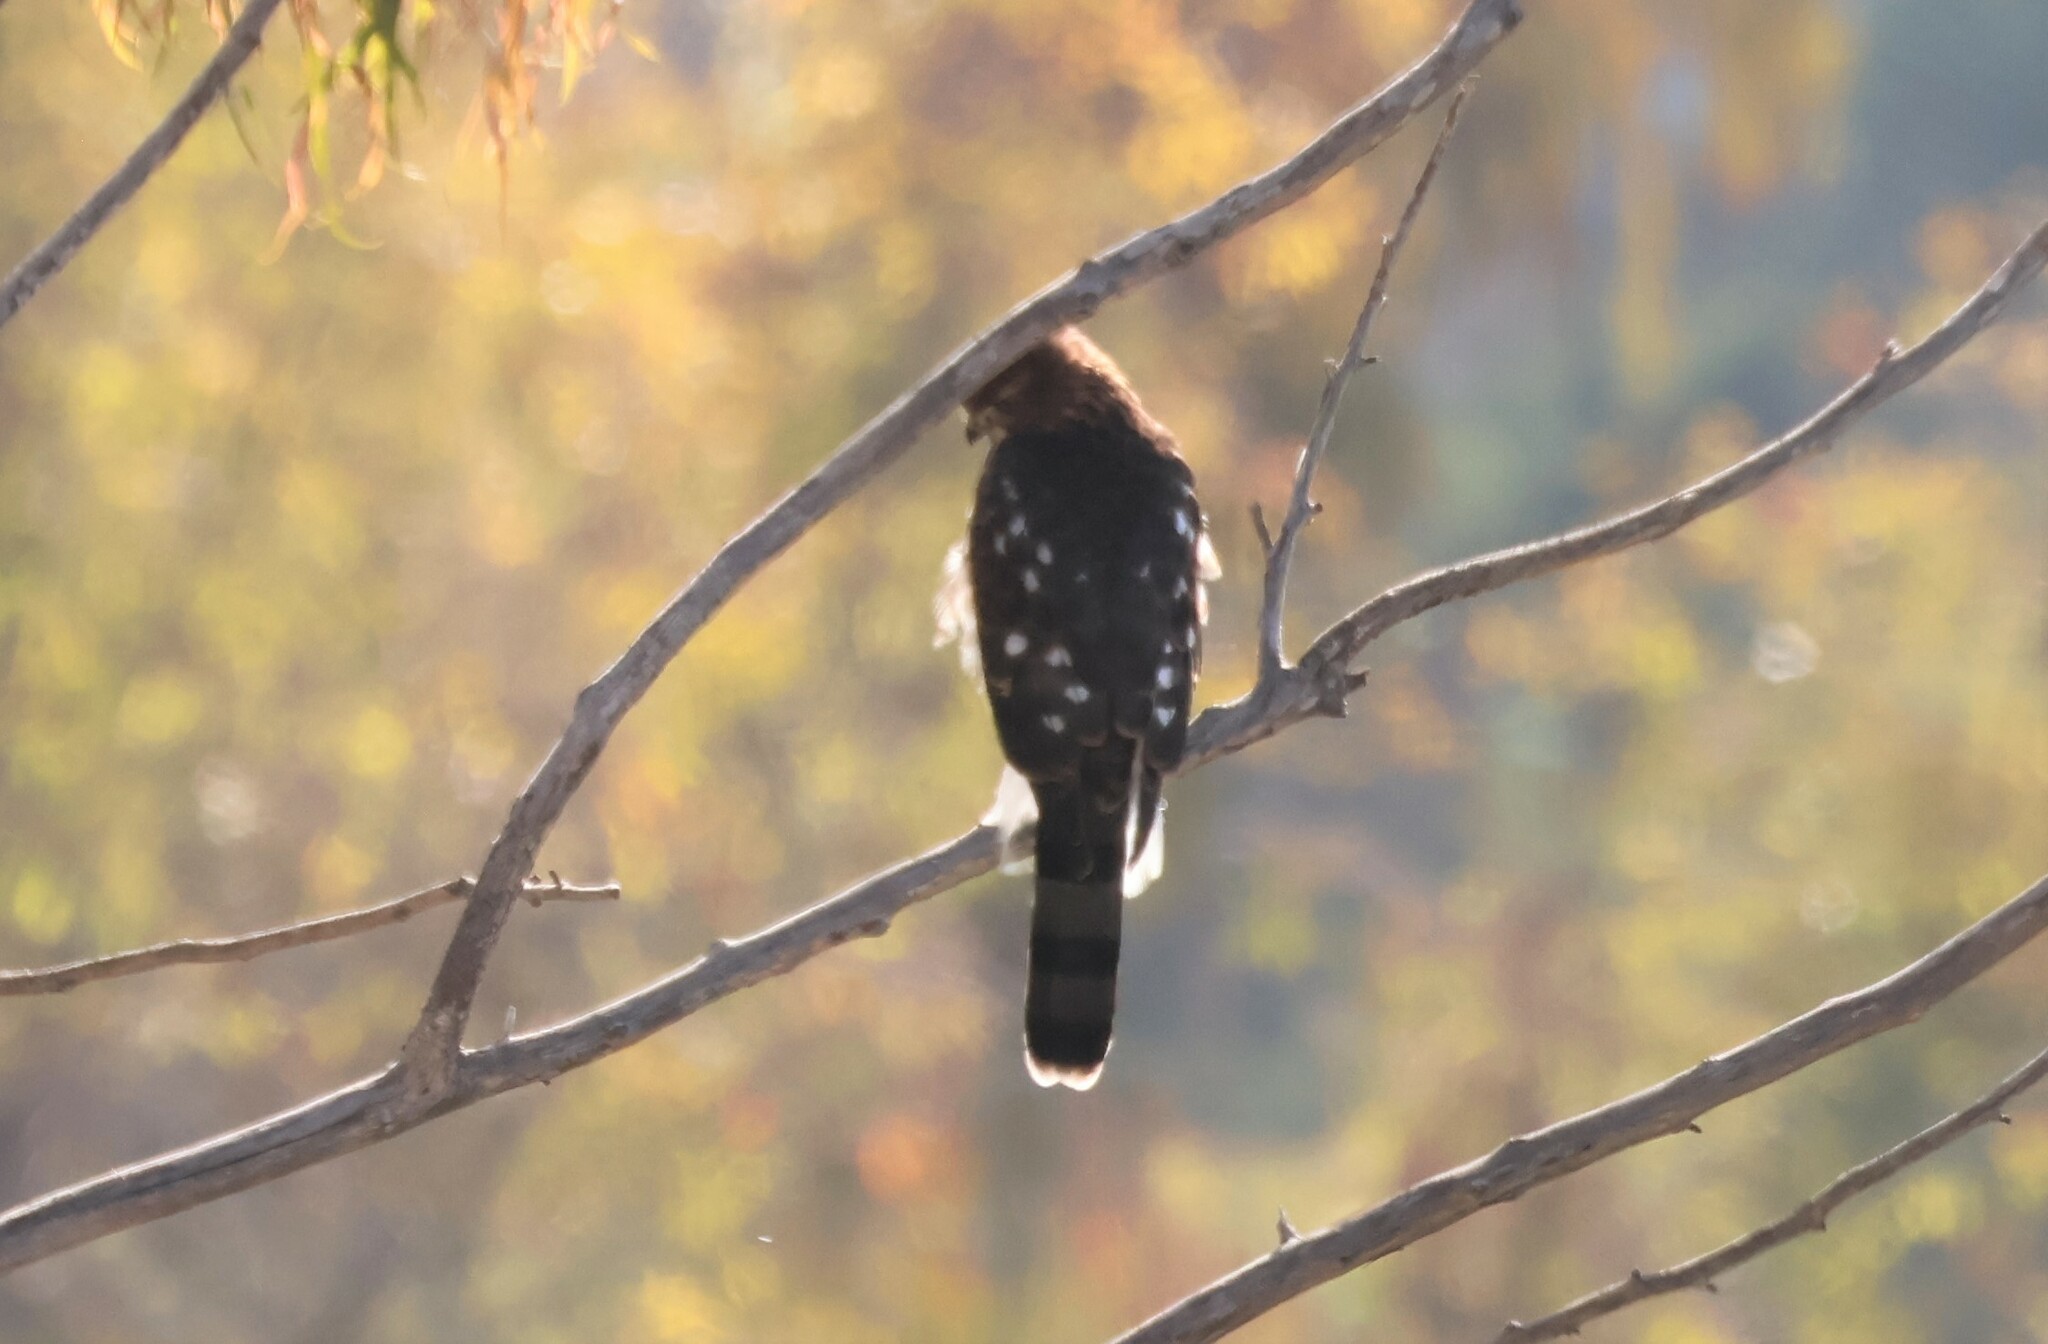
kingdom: Animalia
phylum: Chordata
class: Aves
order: Accipitriformes
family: Accipitridae
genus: Accipiter
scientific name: Accipiter cooperii
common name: Cooper's hawk
